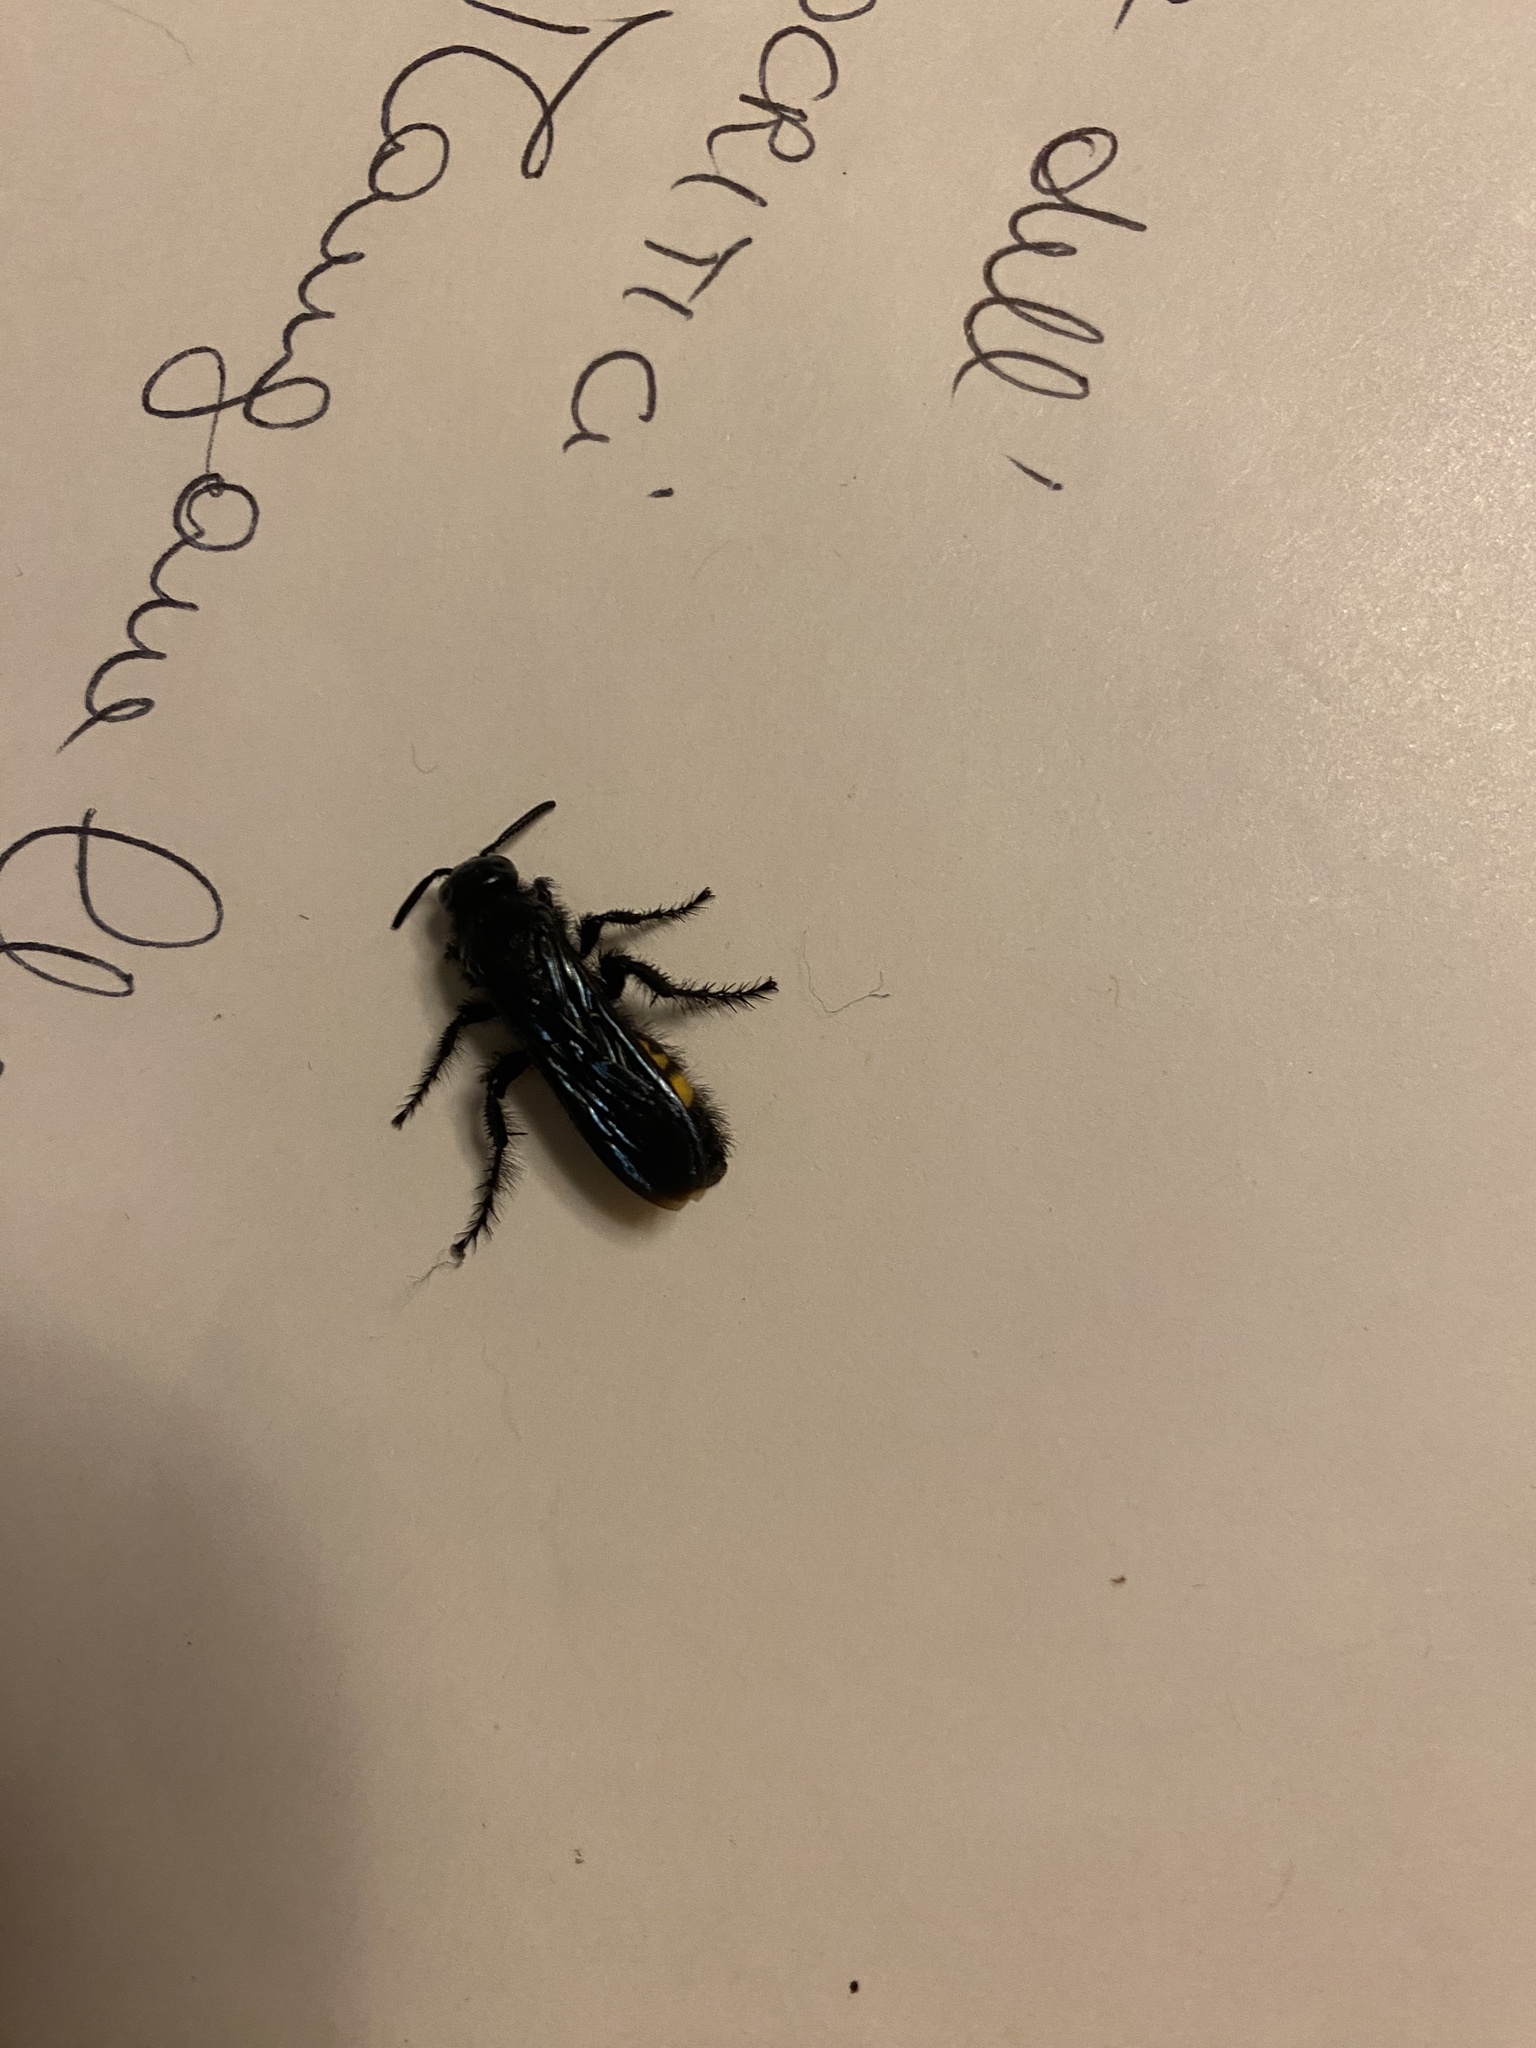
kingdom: Animalia
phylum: Arthropoda
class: Insecta
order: Hymenoptera
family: Scoliidae
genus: Scolia
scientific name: Scolia hirta
